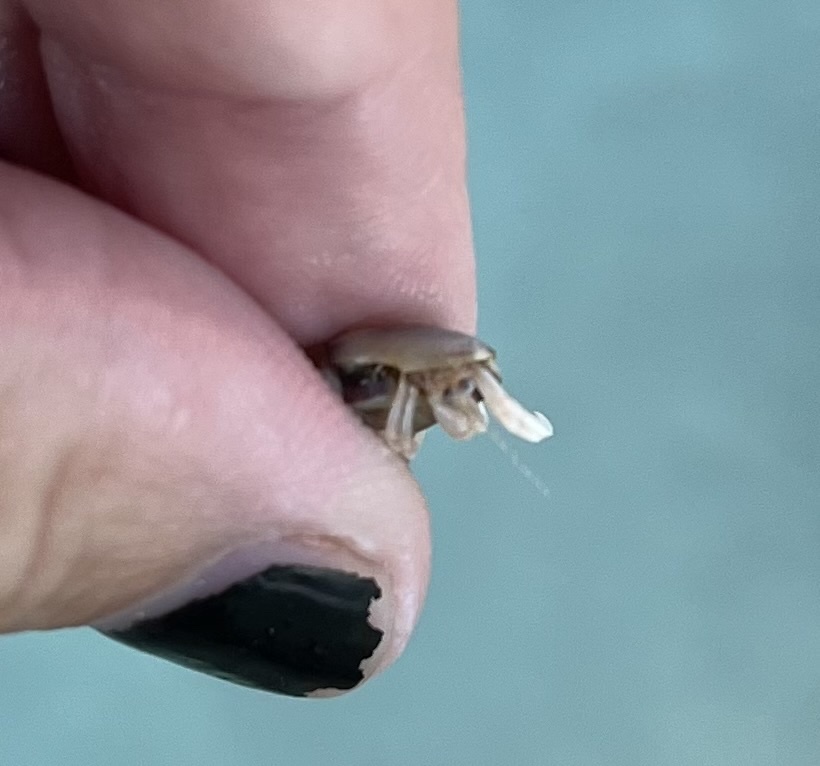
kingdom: Animalia
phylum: Arthropoda
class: Malacostraca
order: Decapoda
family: Paguridae
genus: Pagurus
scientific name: Pagurus longicarpus
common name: Long-armed hermit crab
